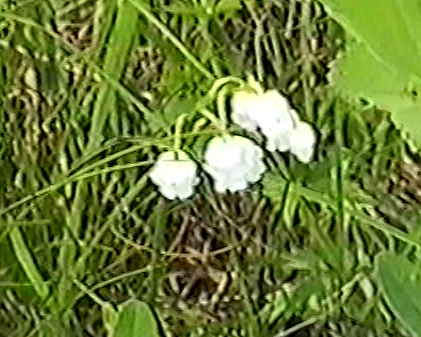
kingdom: Plantae
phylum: Tracheophyta
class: Liliopsida
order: Asparagales
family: Asparagaceae
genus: Convallaria
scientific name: Convallaria majalis
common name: Lily-of-the-valley
